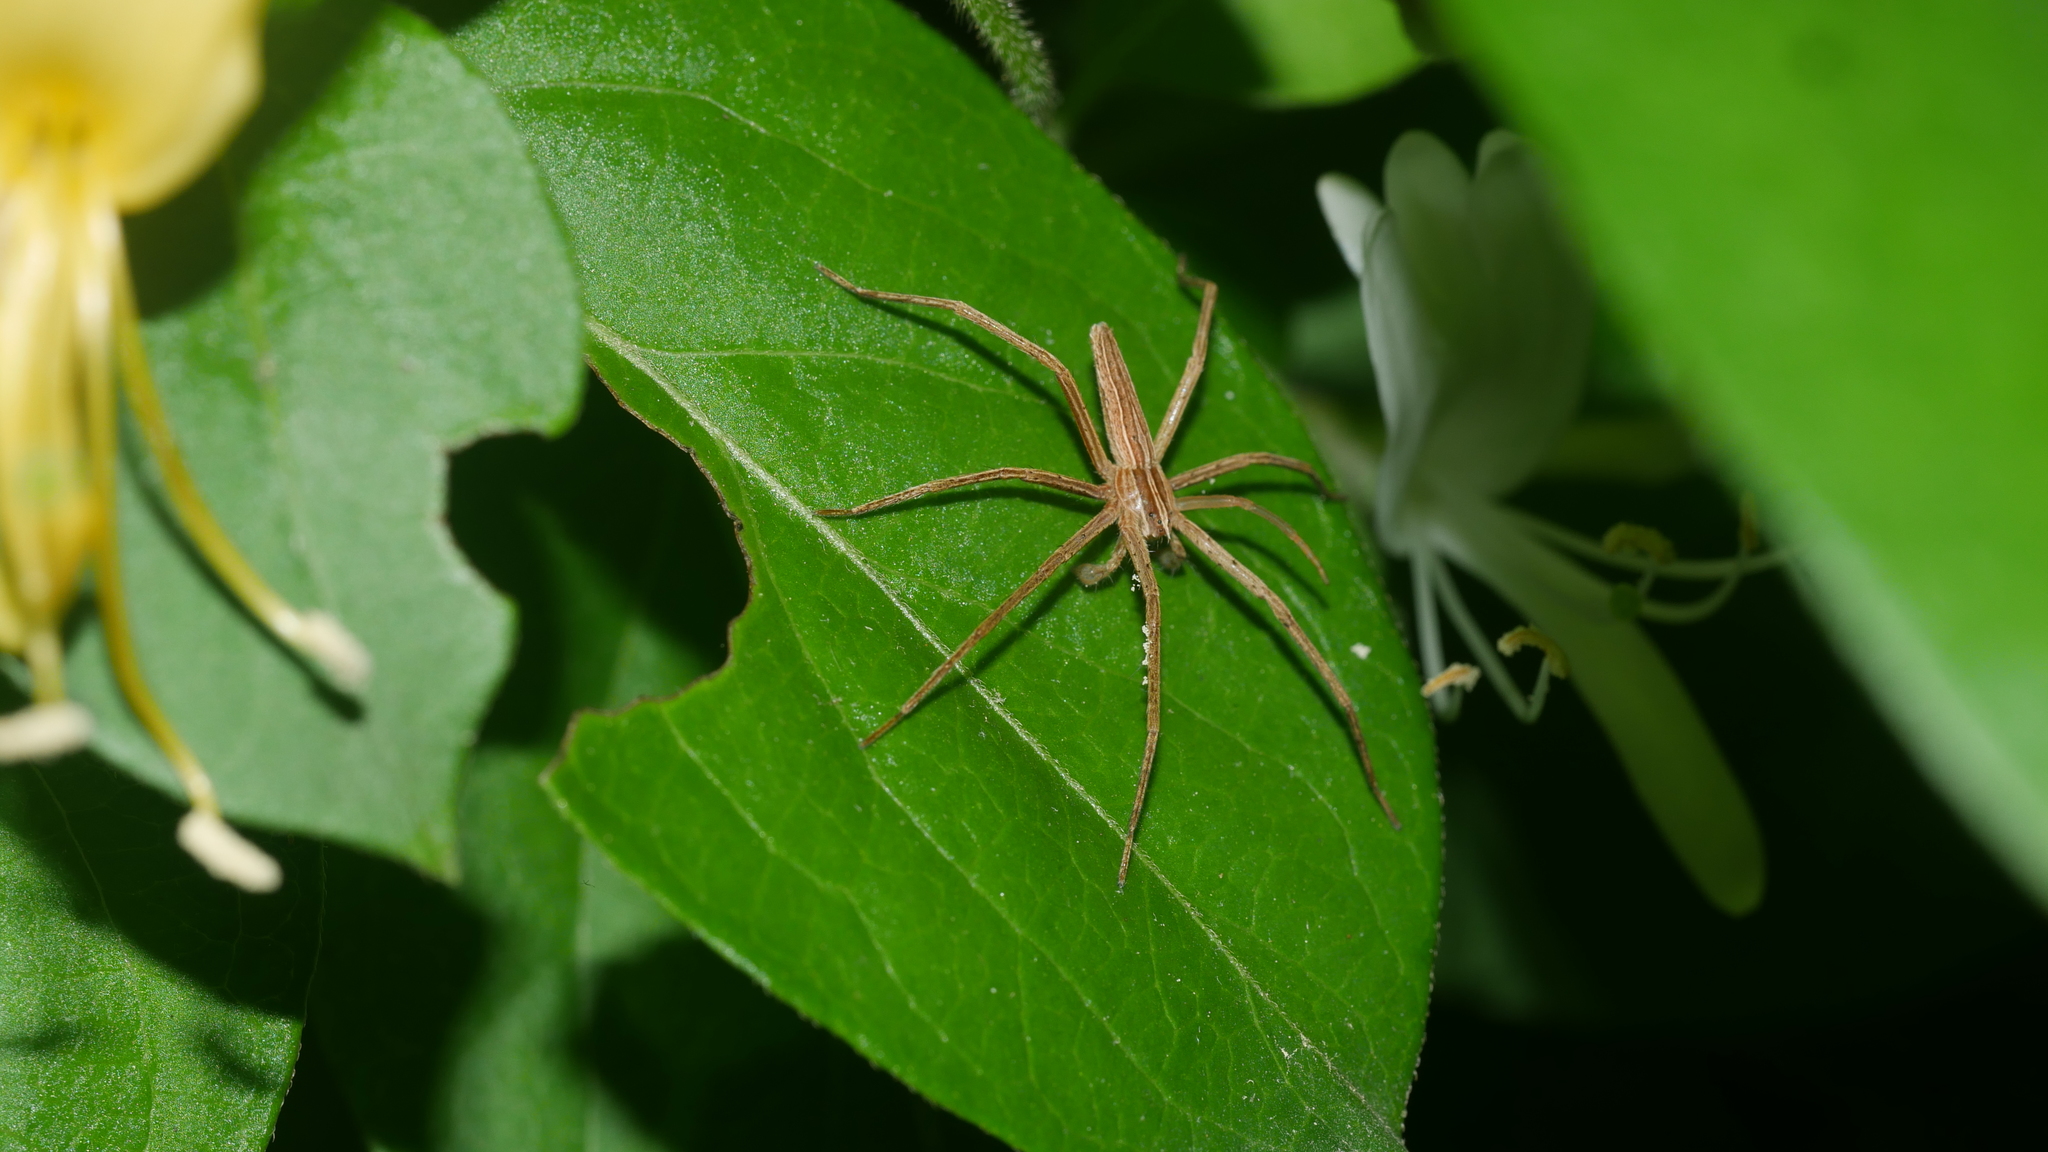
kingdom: Animalia
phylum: Arthropoda
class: Arachnida
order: Araneae
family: Pisauridae
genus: Pisaurina
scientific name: Pisaurina dubia
